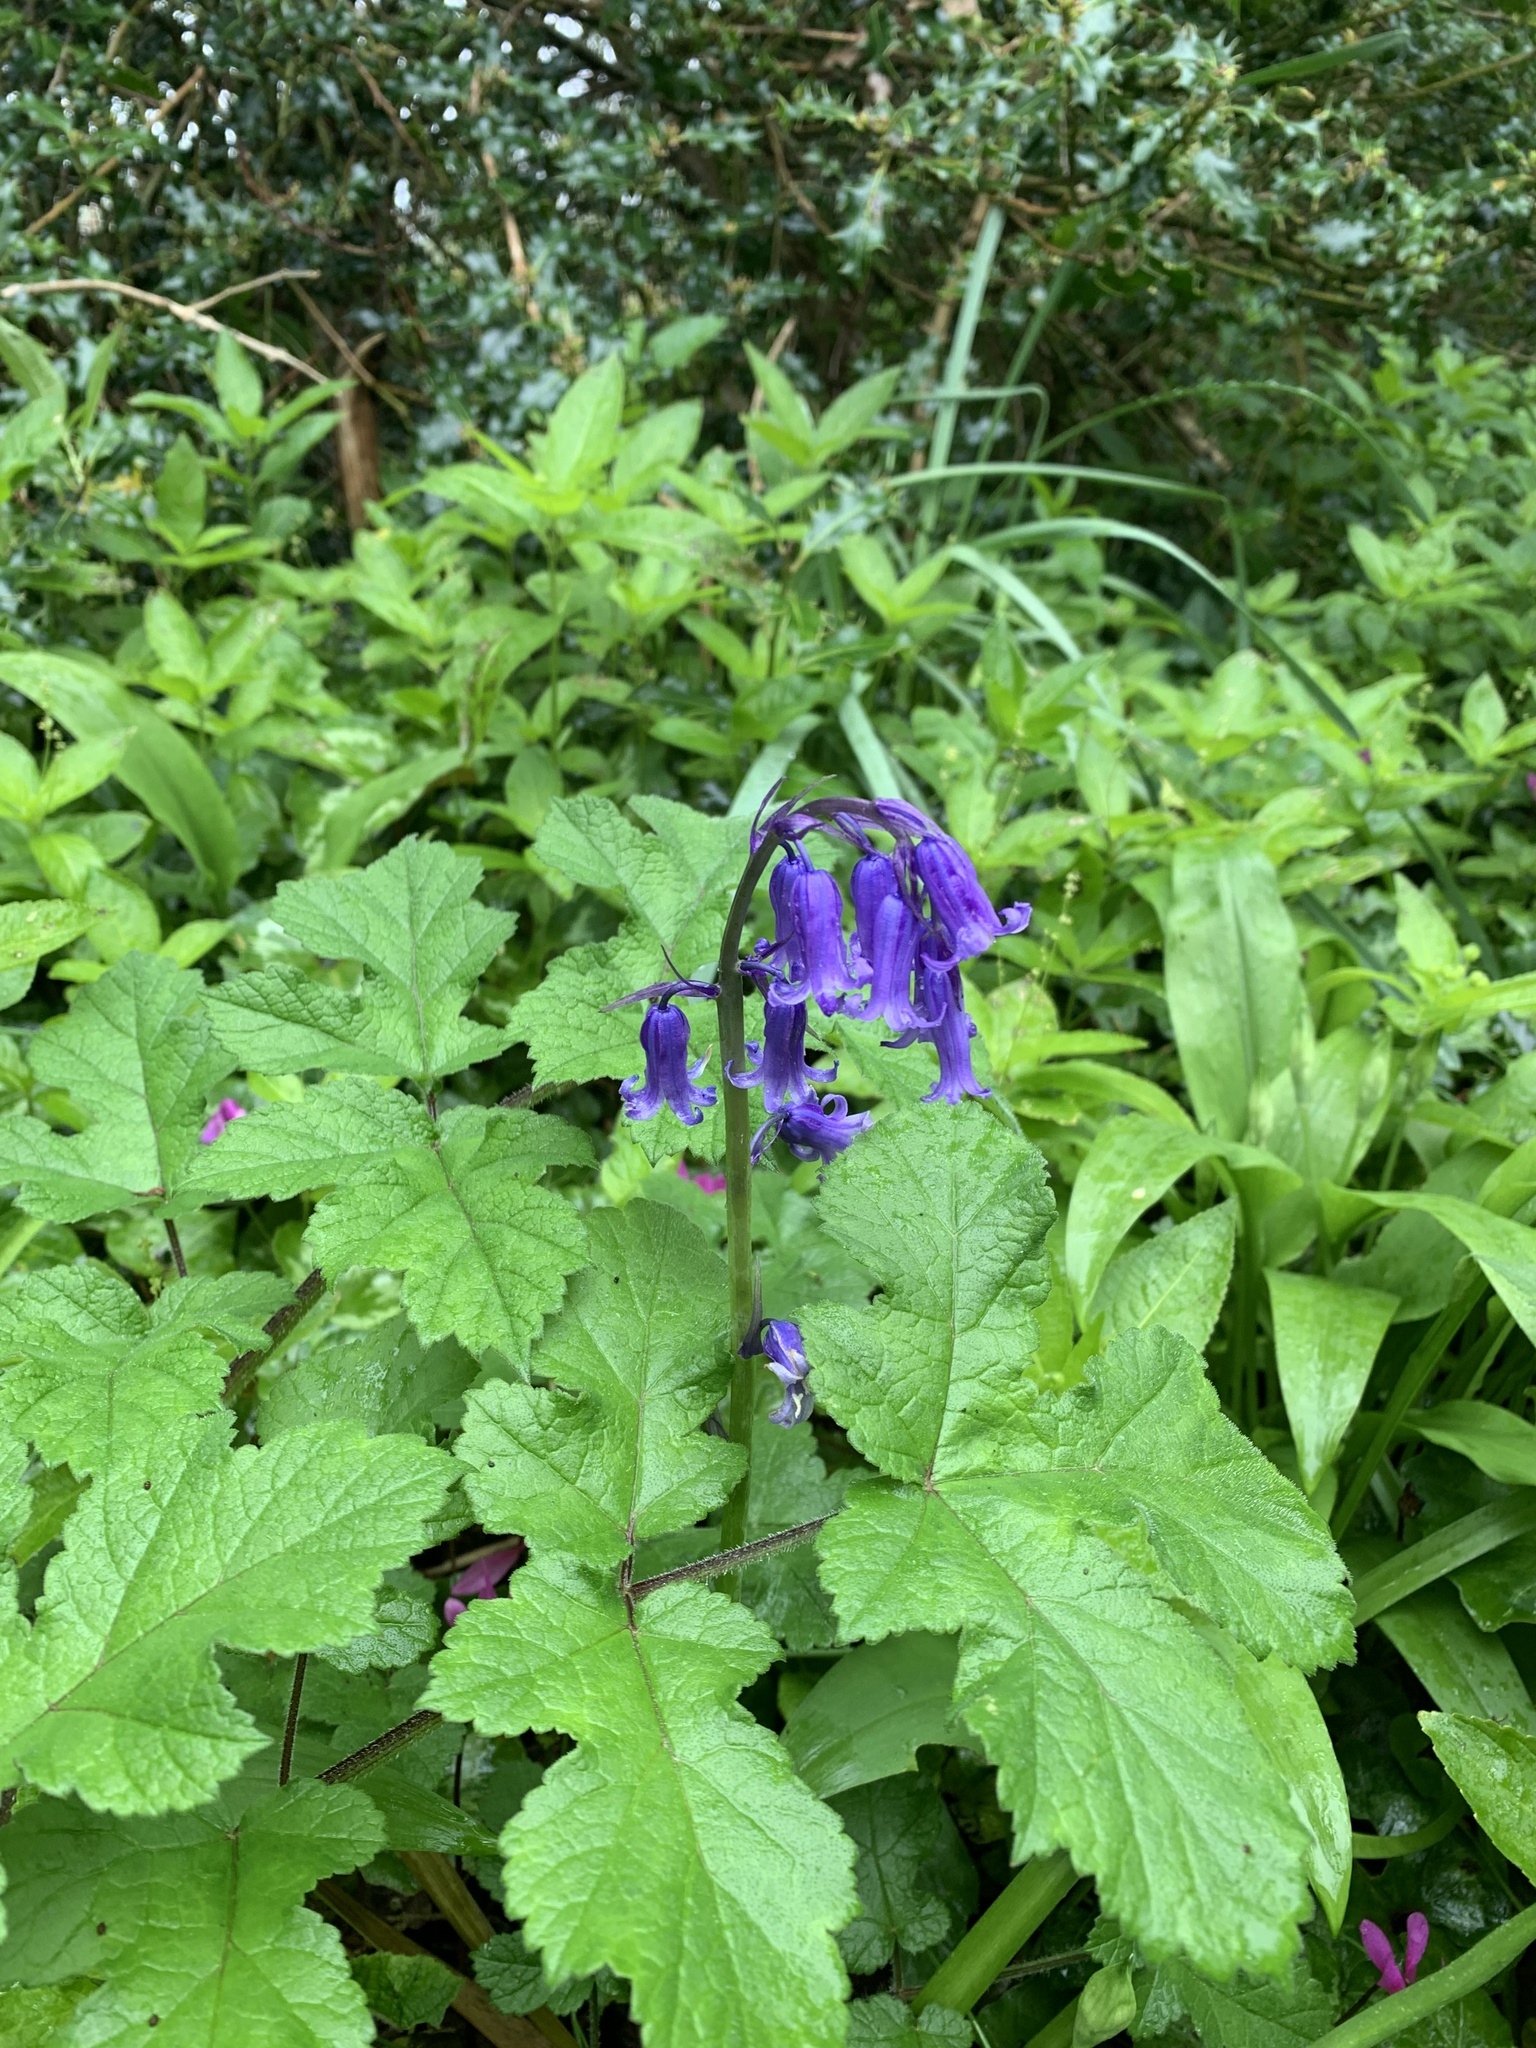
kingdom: Plantae
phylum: Tracheophyta
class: Liliopsida
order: Asparagales
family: Asparagaceae
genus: Hyacinthoides
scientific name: Hyacinthoides non-scripta
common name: Bluebell
